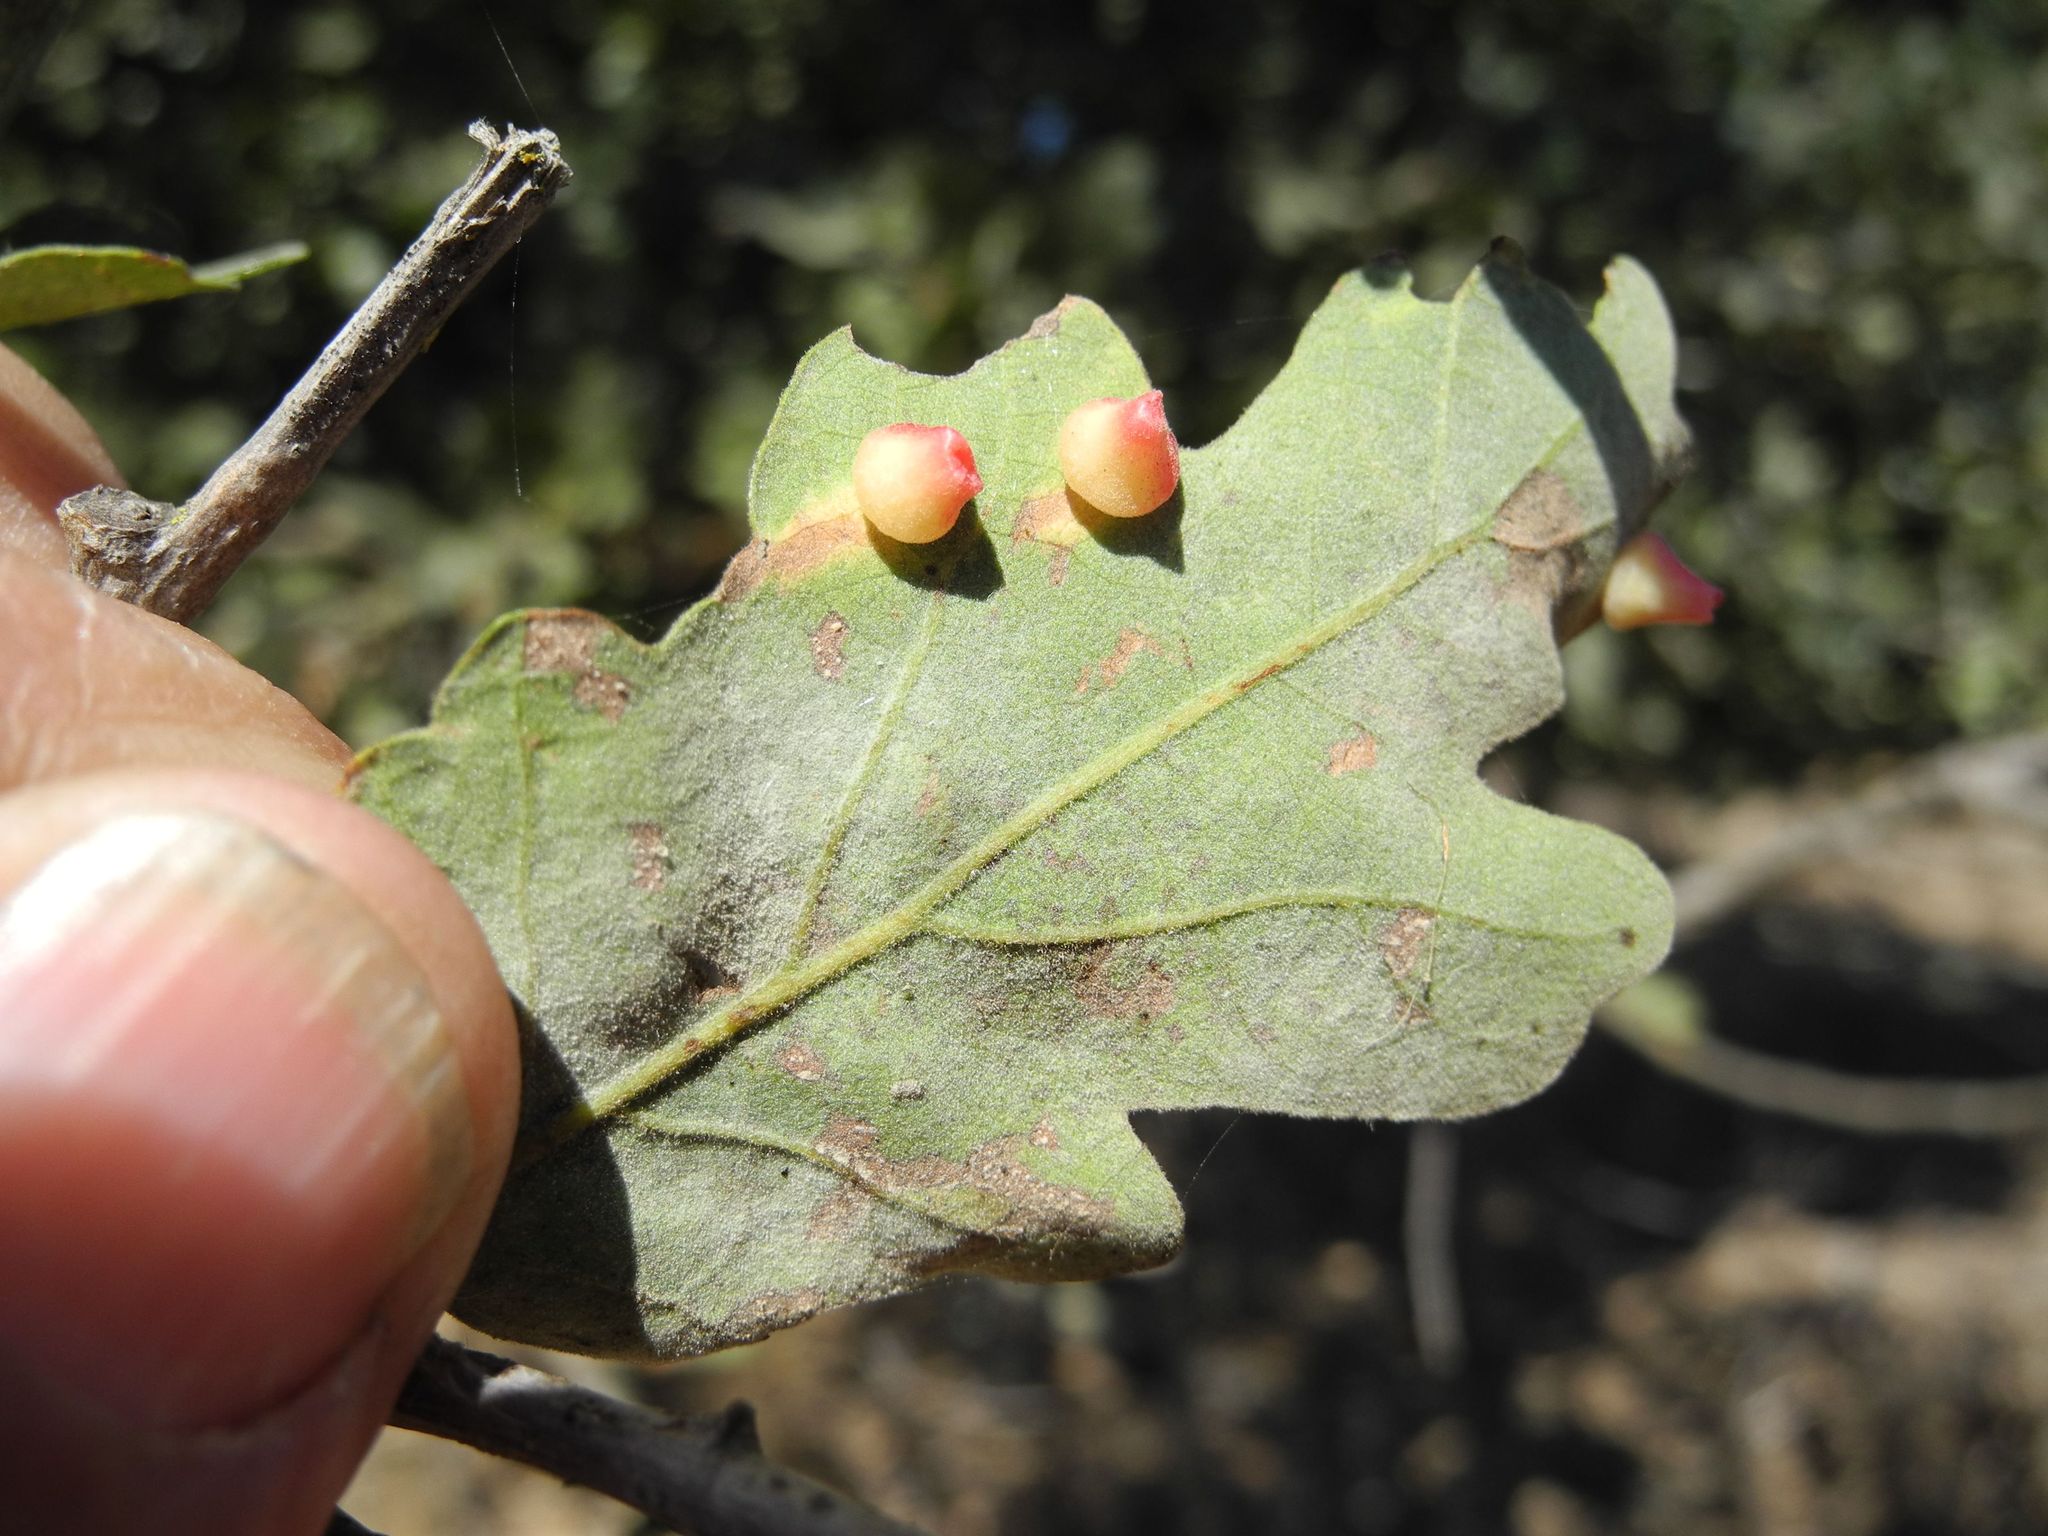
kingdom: Animalia
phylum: Arthropoda
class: Insecta
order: Hymenoptera
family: Cynipidae
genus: Andricus
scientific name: Andricus
